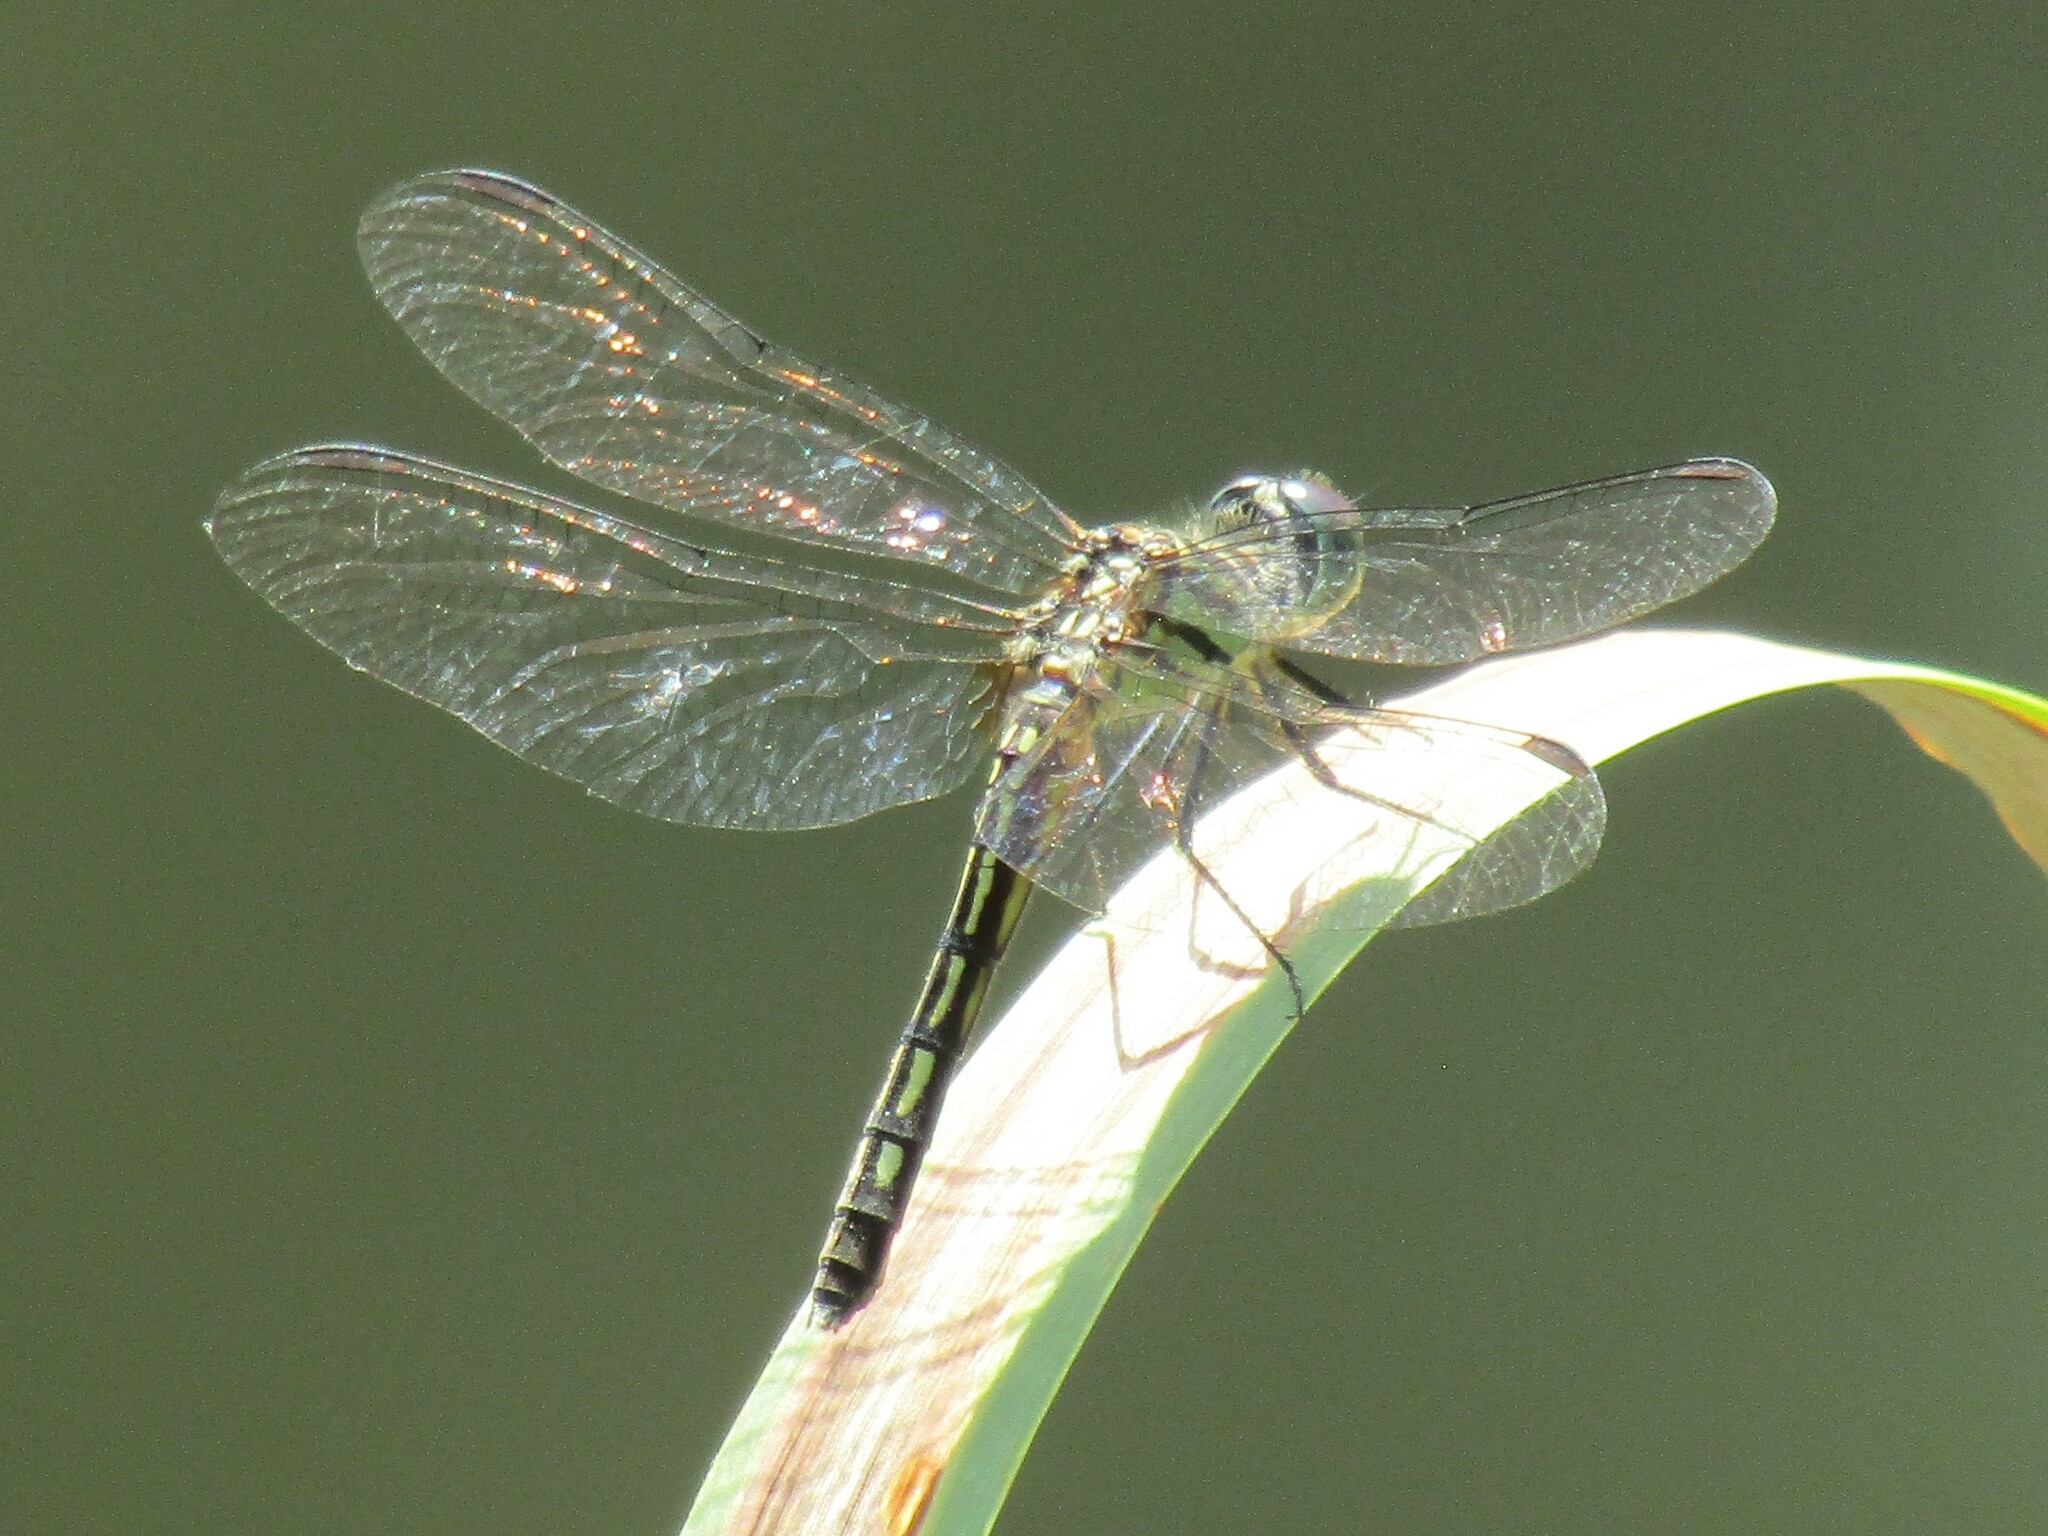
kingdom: Animalia
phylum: Arthropoda
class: Insecta
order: Odonata
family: Libellulidae
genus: Pachydiplax
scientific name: Pachydiplax longipennis
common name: Blue dasher
